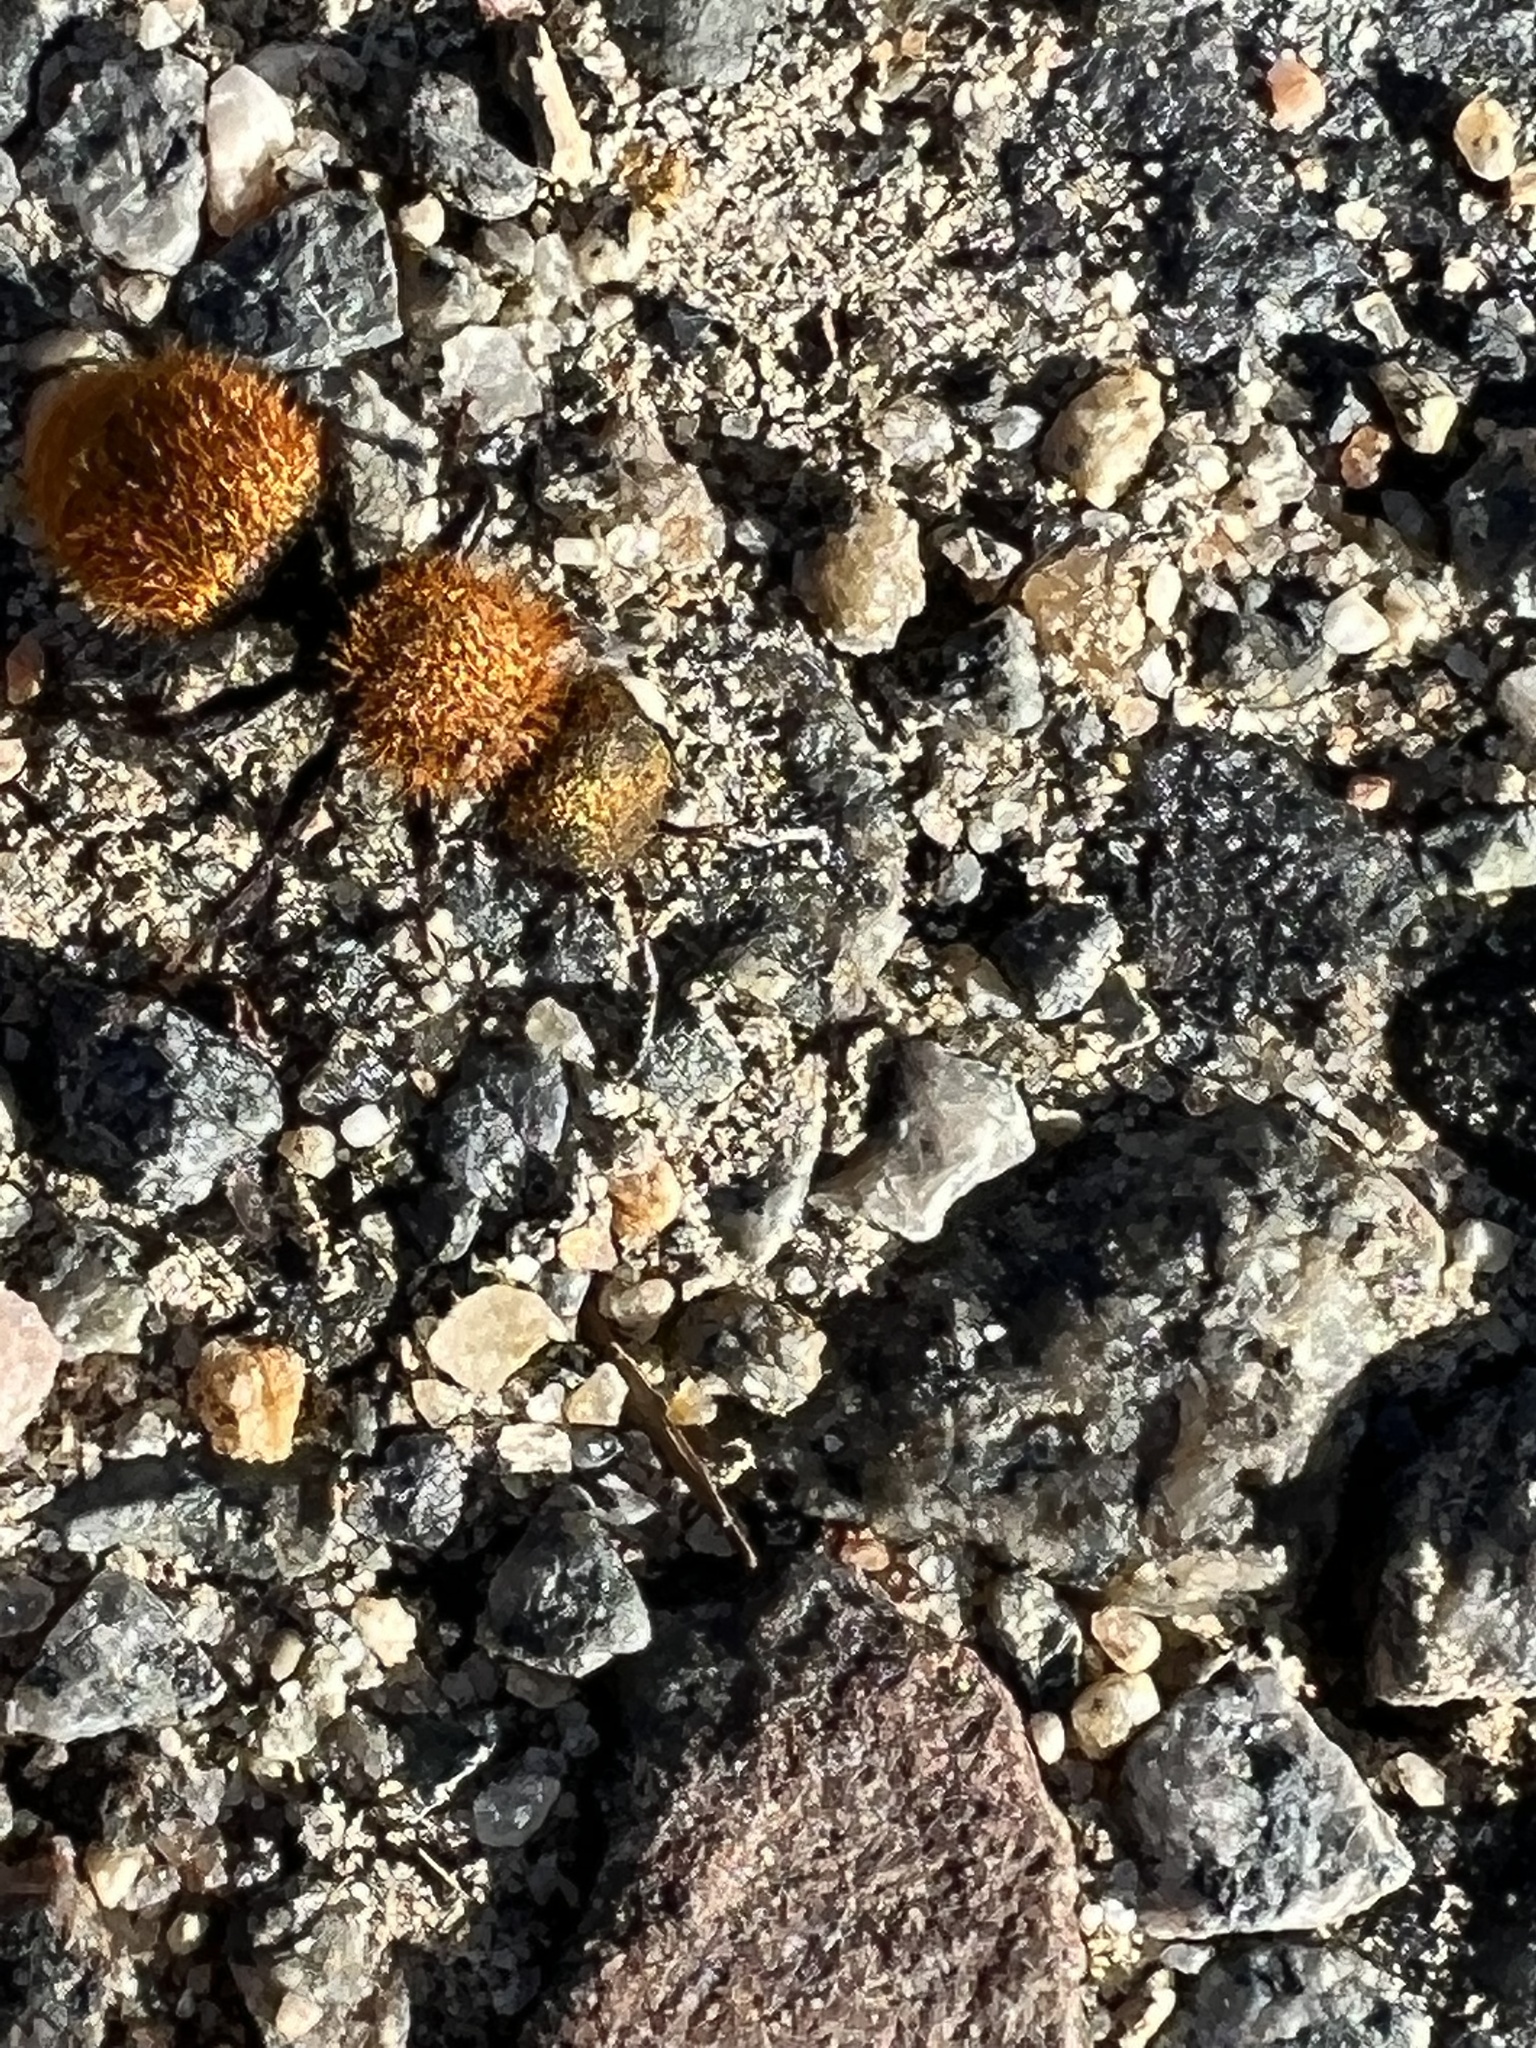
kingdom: Animalia
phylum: Arthropoda
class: Insecta
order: Hymenoptera
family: Mutillidae
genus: Dasymutilla
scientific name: Dasymutilla
